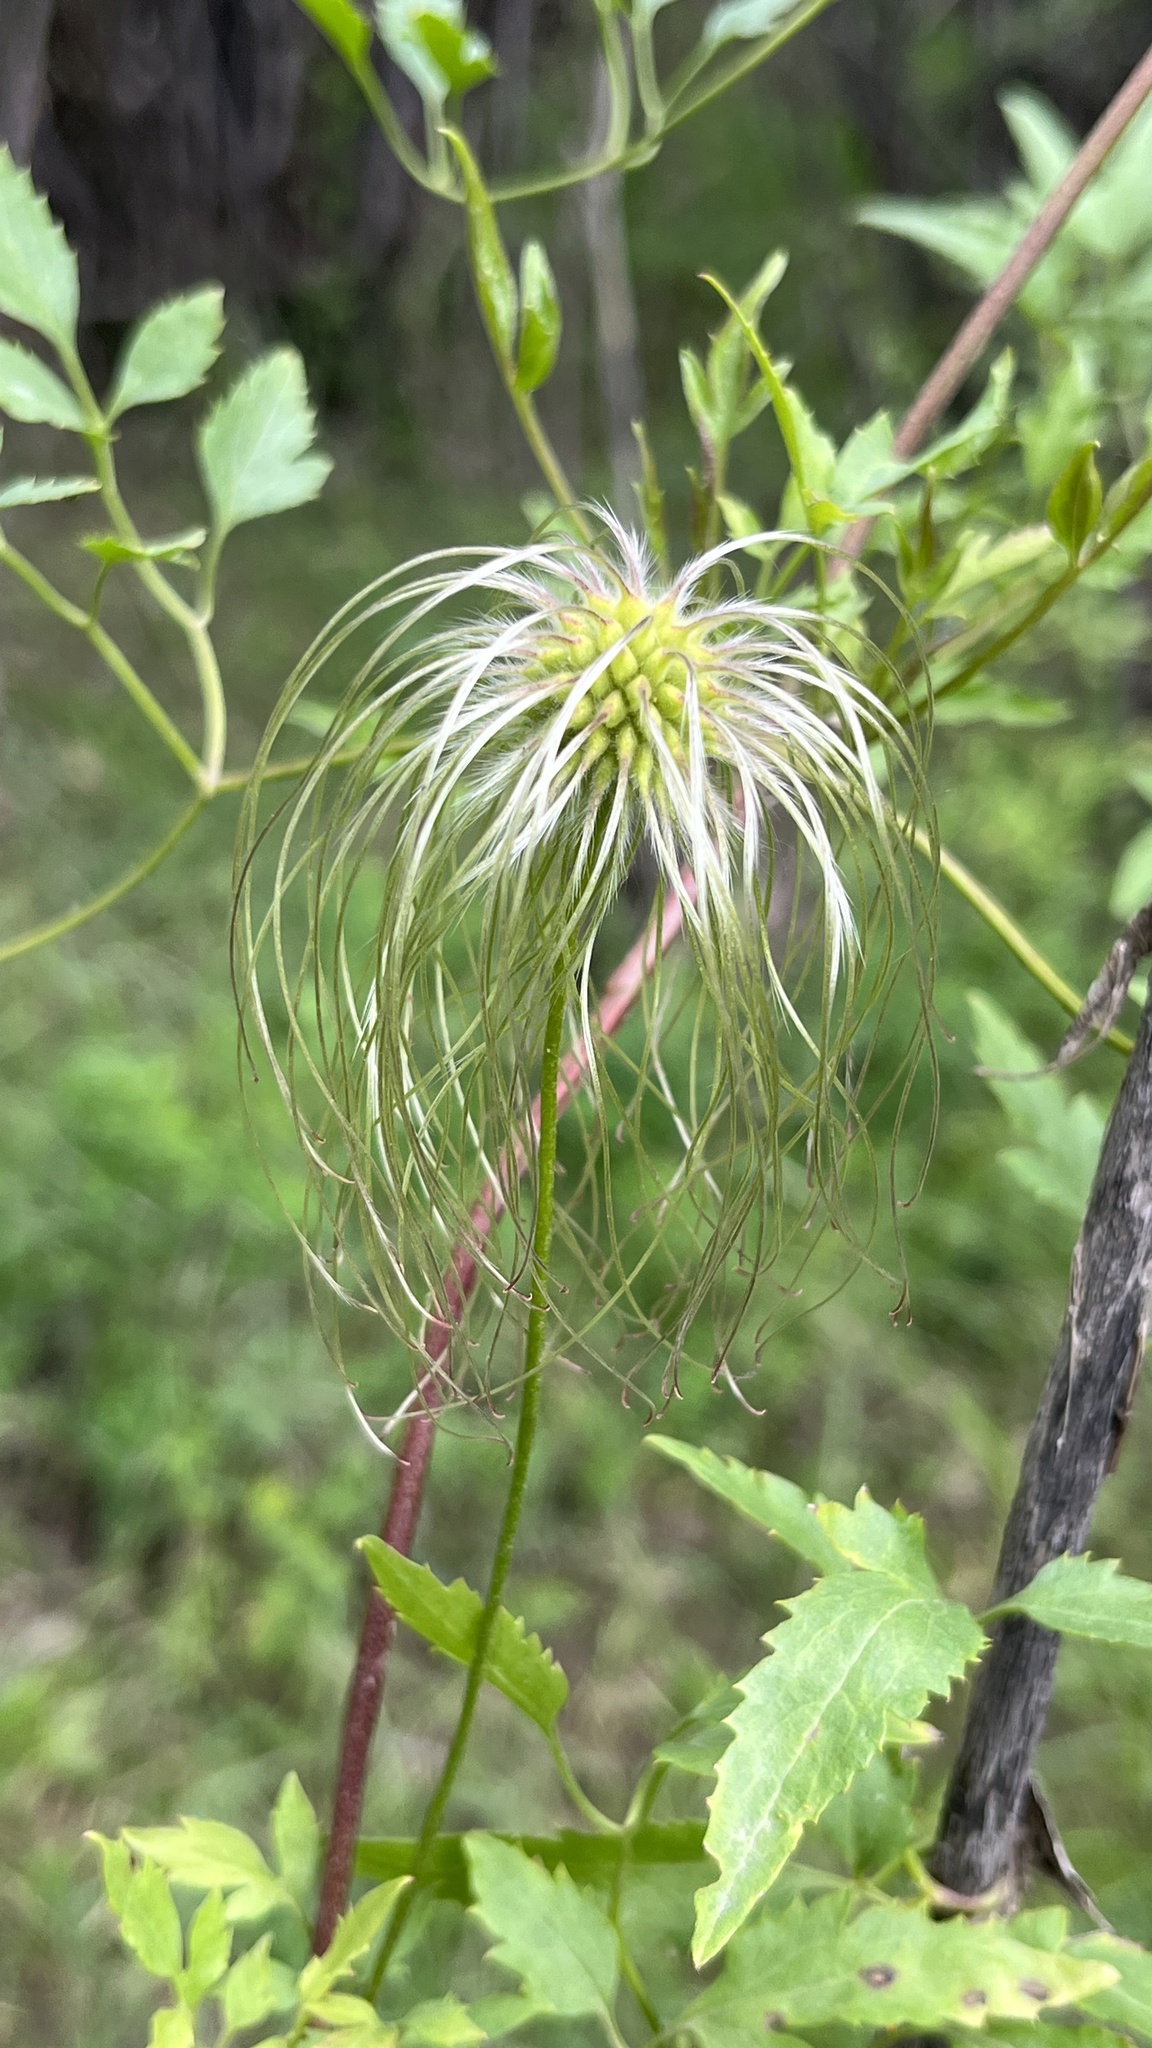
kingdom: Plantae
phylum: Tracheophyta
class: Magnoliopsida
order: Ranunculales
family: Ranunculaceae
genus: Clematis
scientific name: Clematis tangutica
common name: Orange-peel clematis
